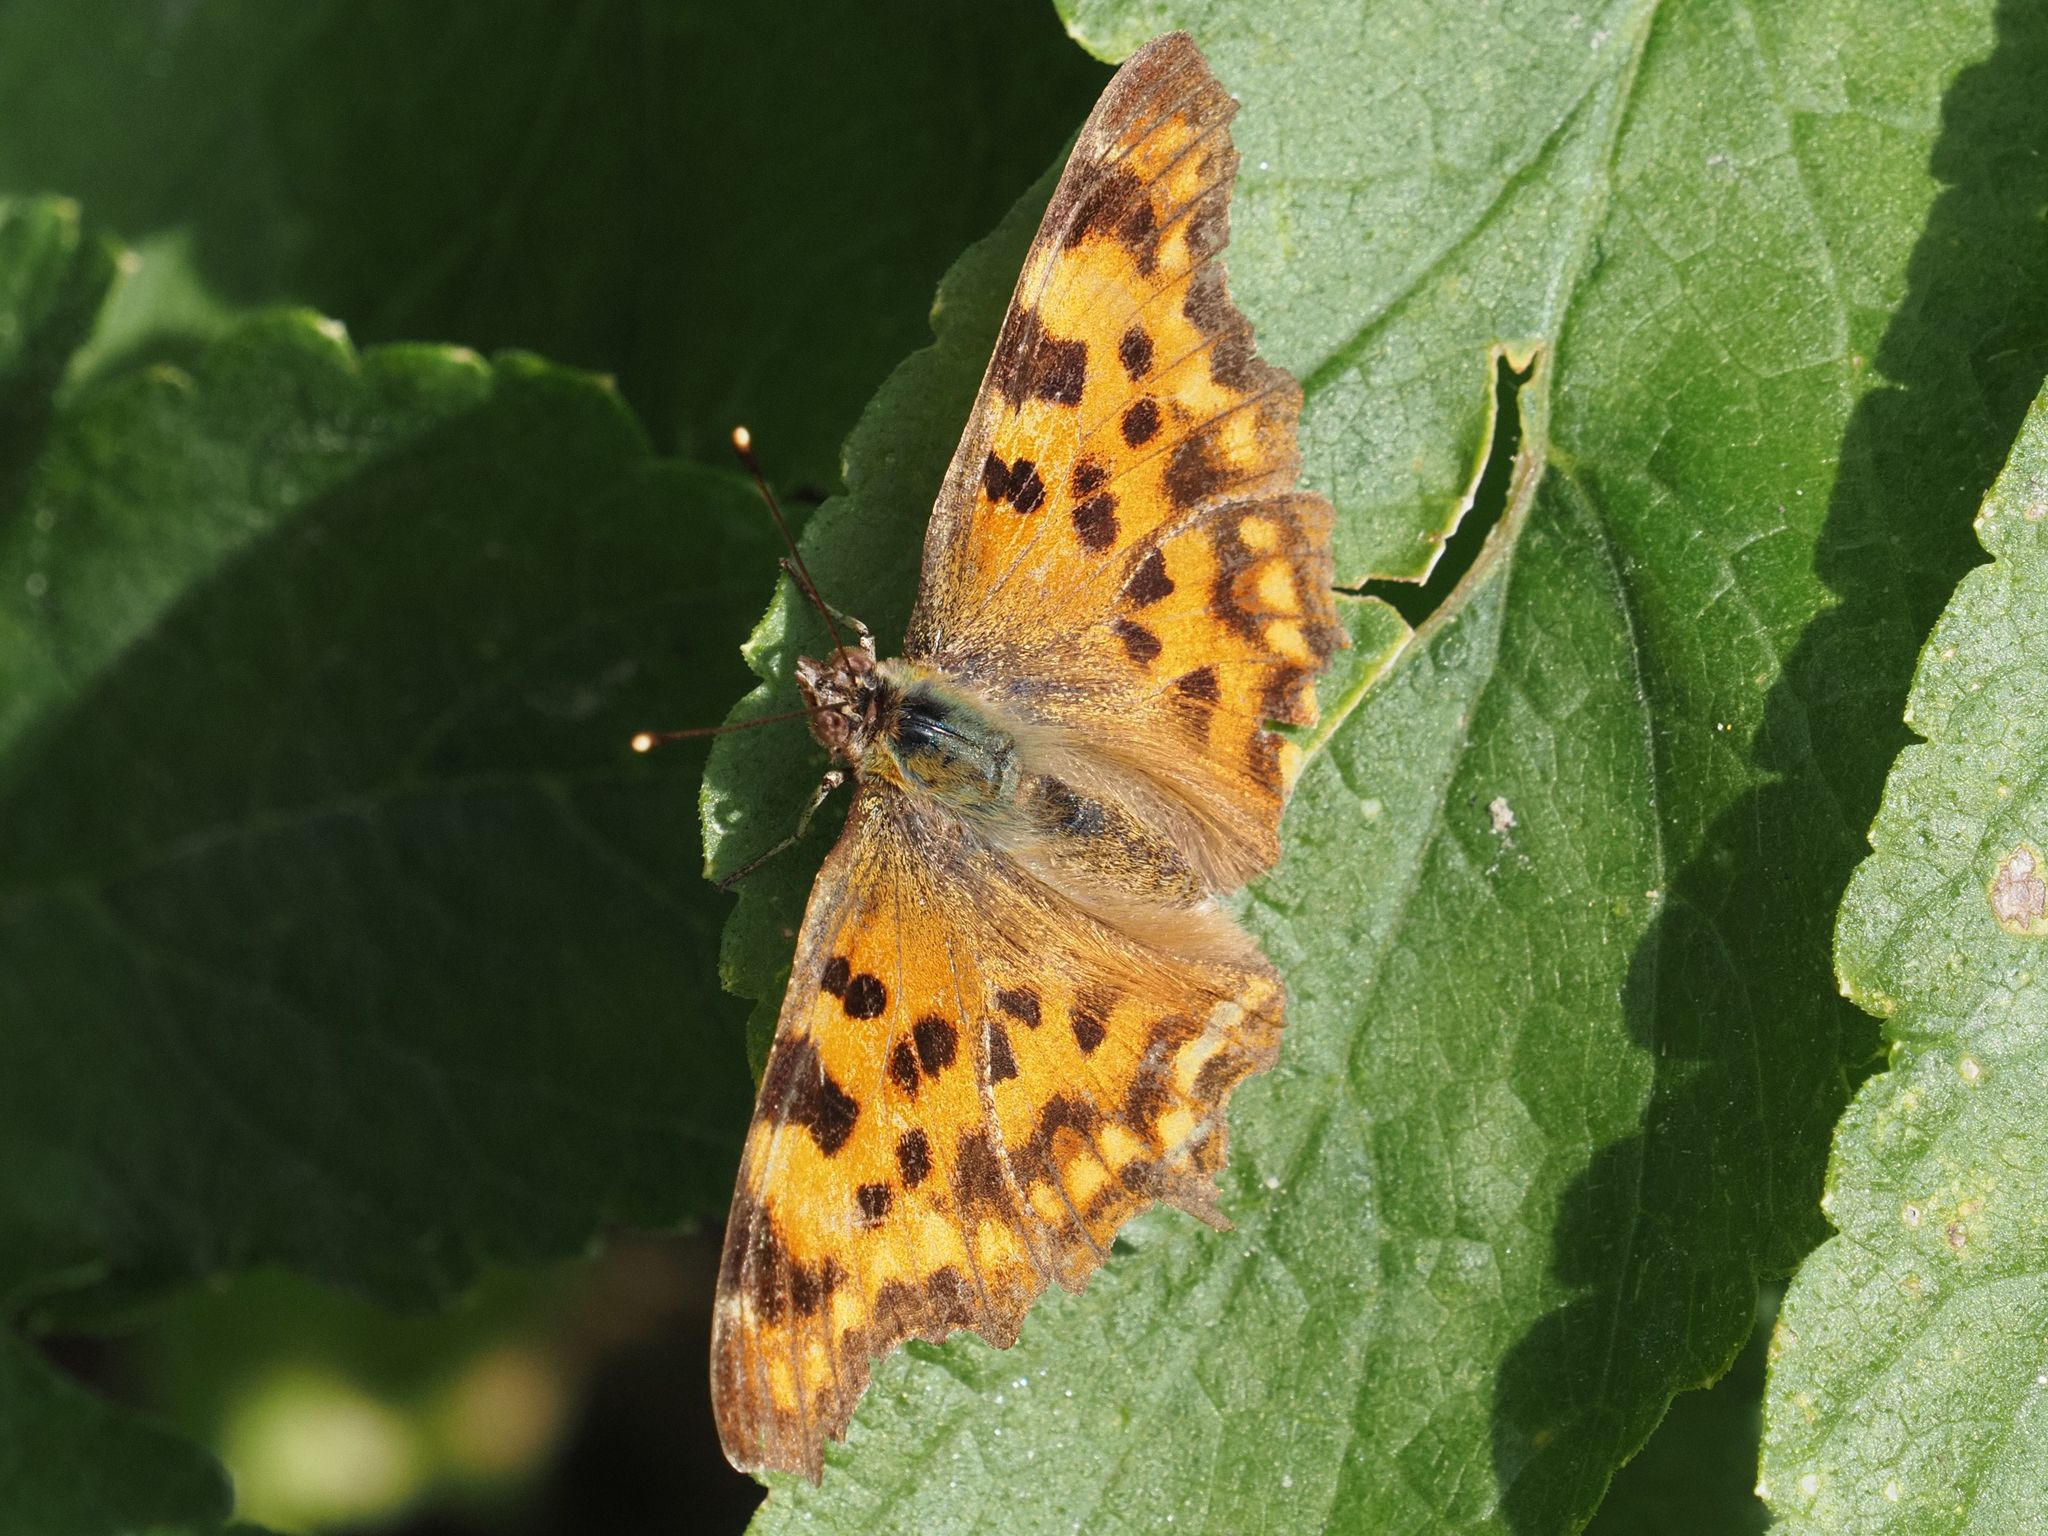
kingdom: Animalia
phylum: Arthropoda
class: Insecta
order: Lepidoptera
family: Nymphalidae
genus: Polygonia
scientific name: Polygonia c-album
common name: Comma
